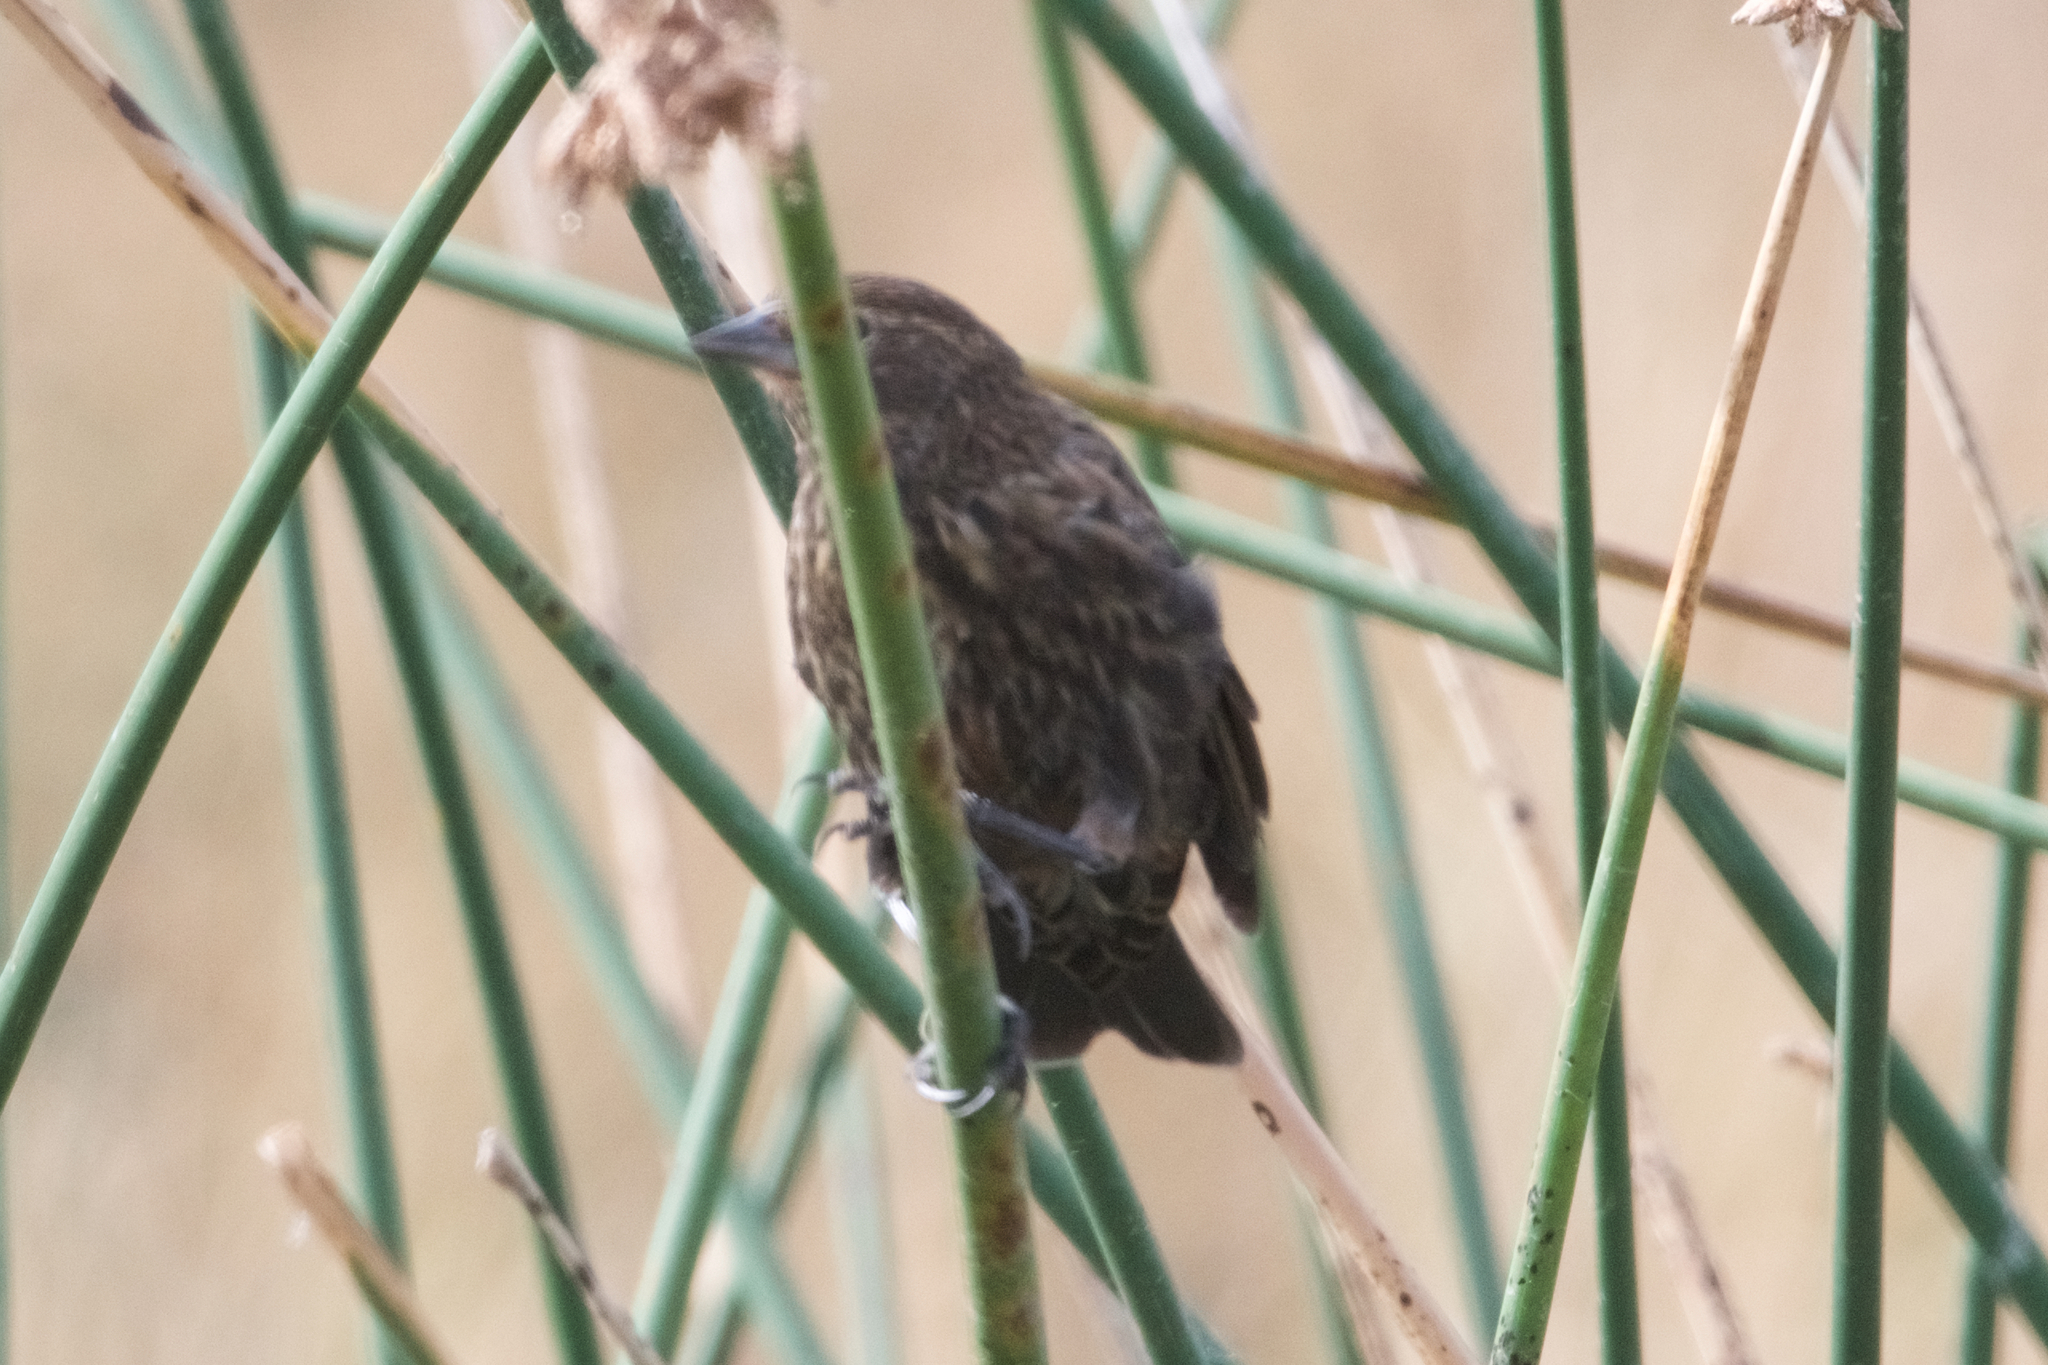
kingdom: Animalia
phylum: Chordata
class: Aves
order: Passeriformes
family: Icteridae
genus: Agelaius
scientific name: Agelaius phoeniceus
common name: Red-winged blackbird
